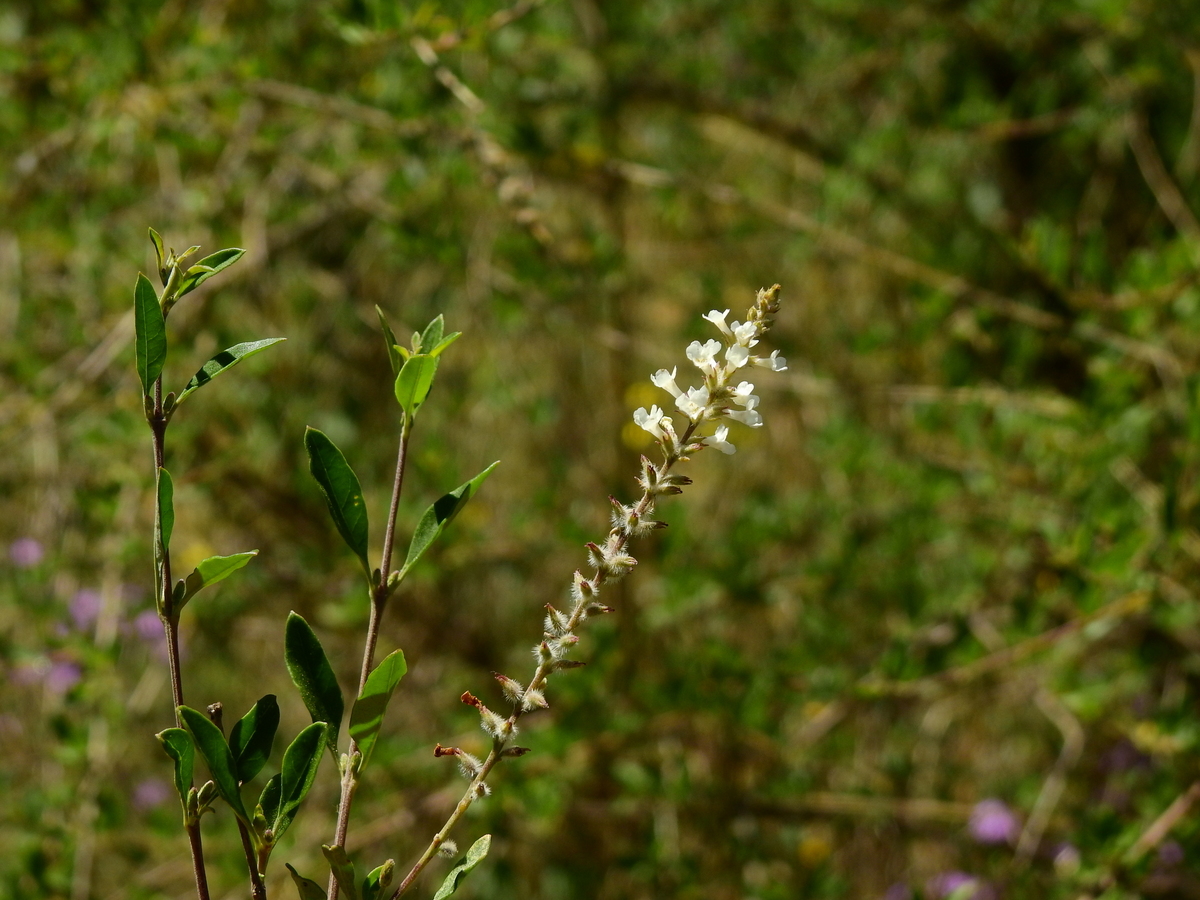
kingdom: Plantae
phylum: Tracheophyta
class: Magnoliopsida
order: Lamiales
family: Verbenaceae
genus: Aloysia
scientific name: Aloysia gratissima
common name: Common bee-brush
